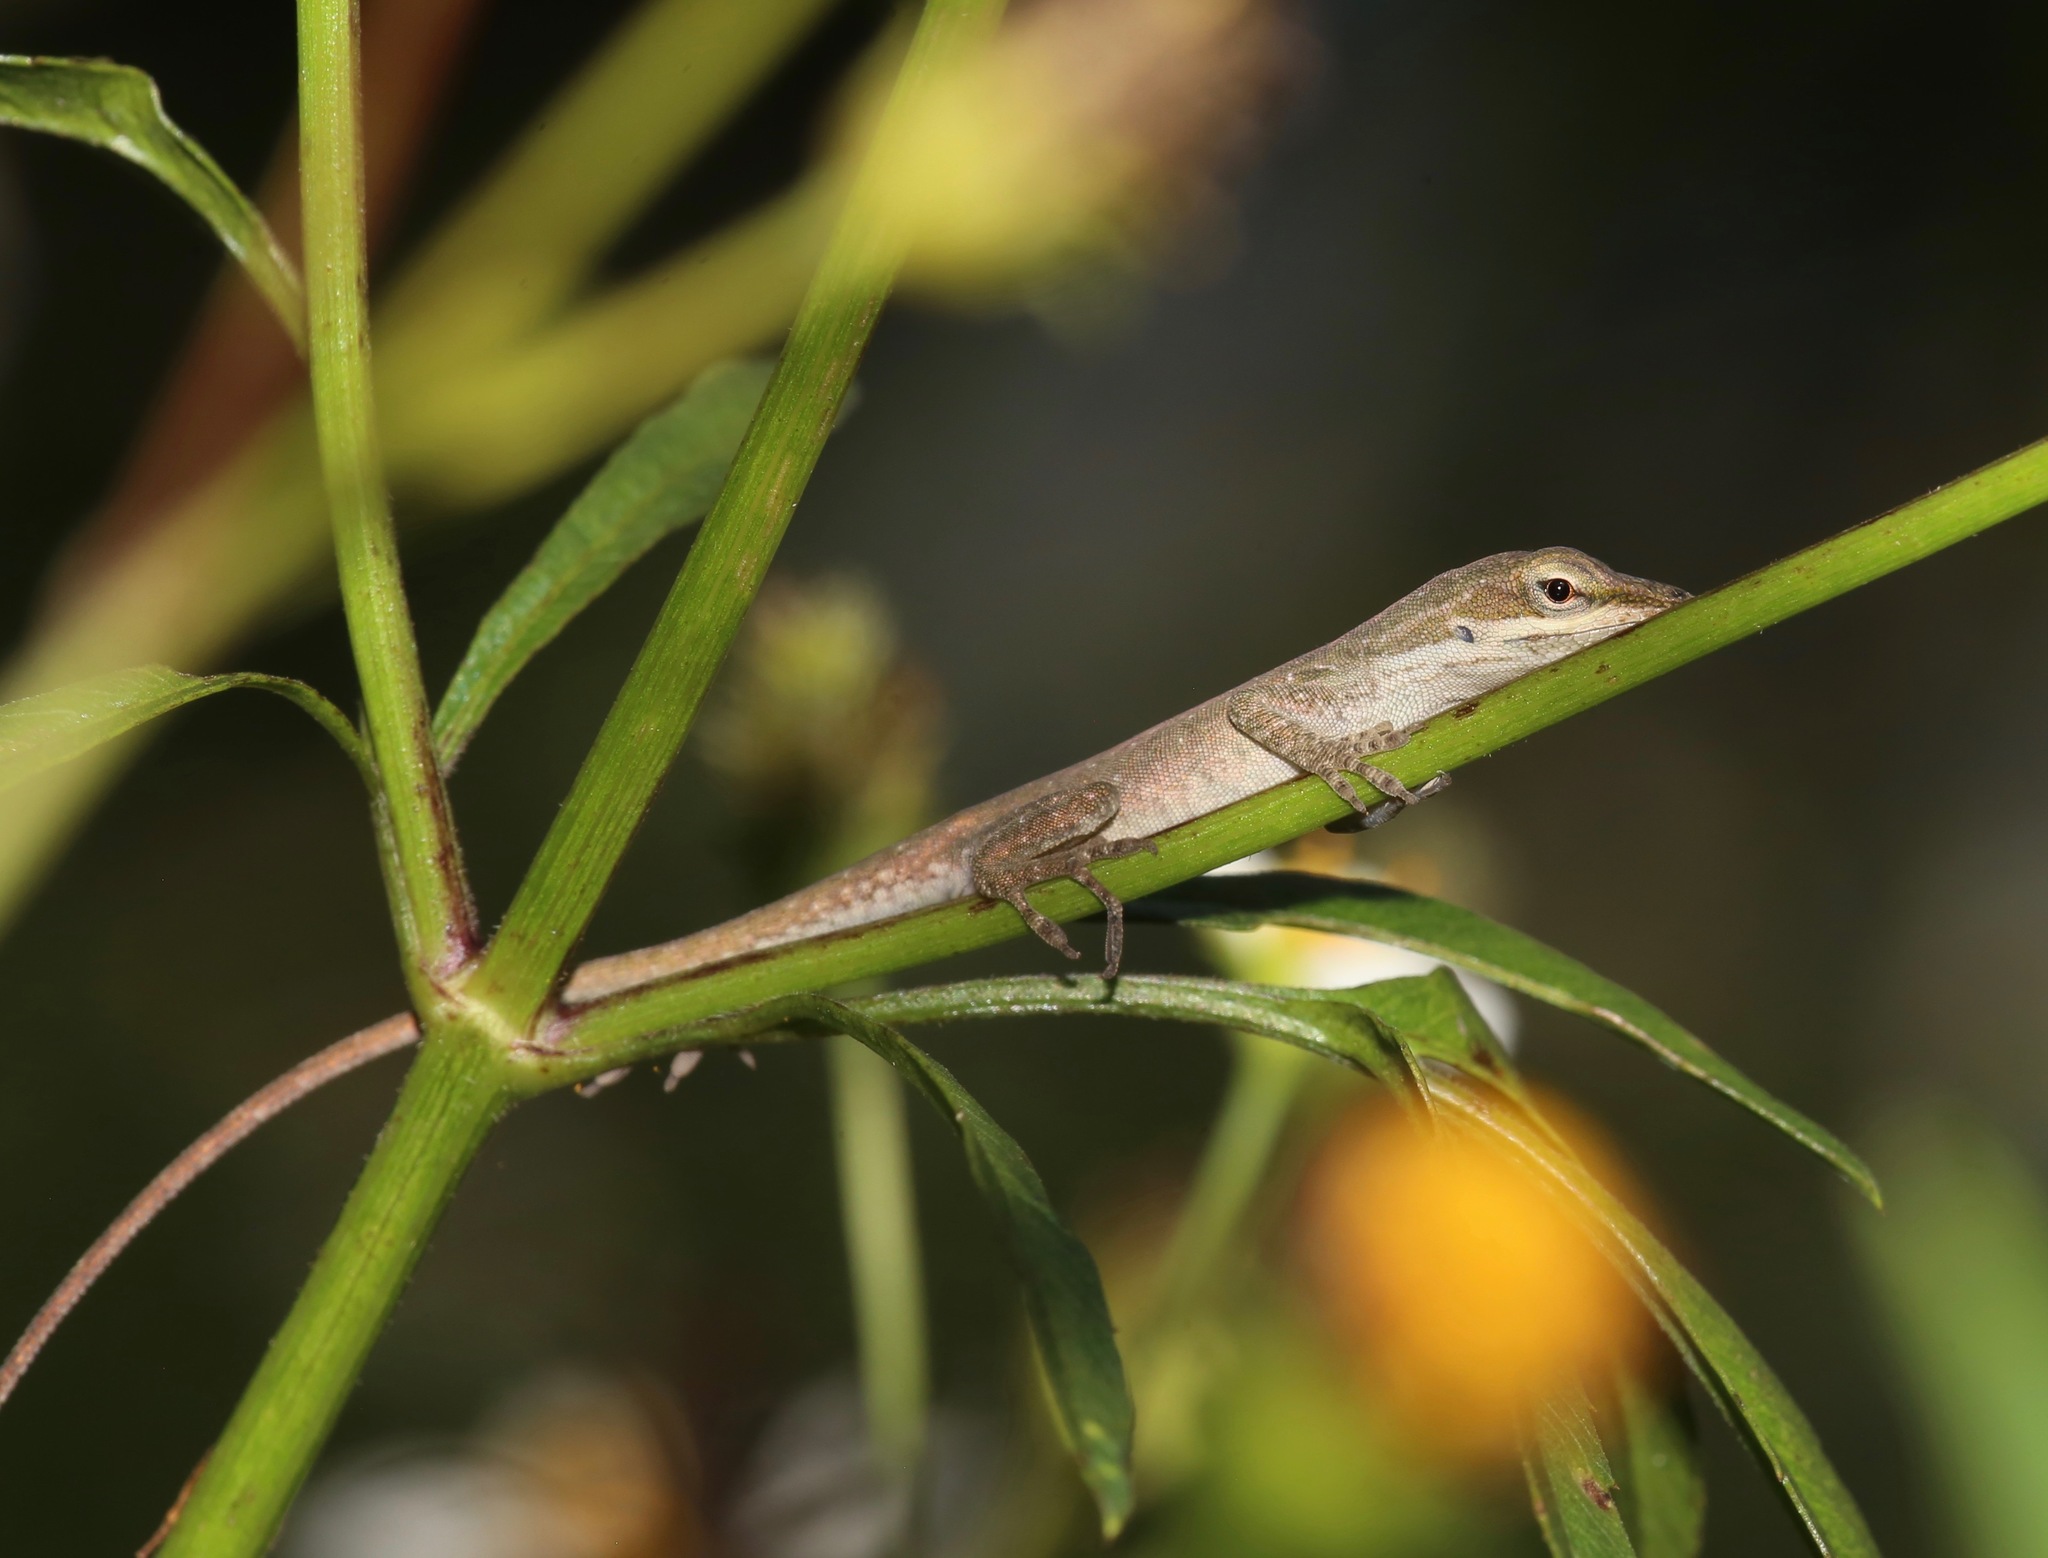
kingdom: Animalia
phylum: Chordata
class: Squamata
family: Dactyloidae
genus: Anolis
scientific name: Anolis carolinensis
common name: Green anole
